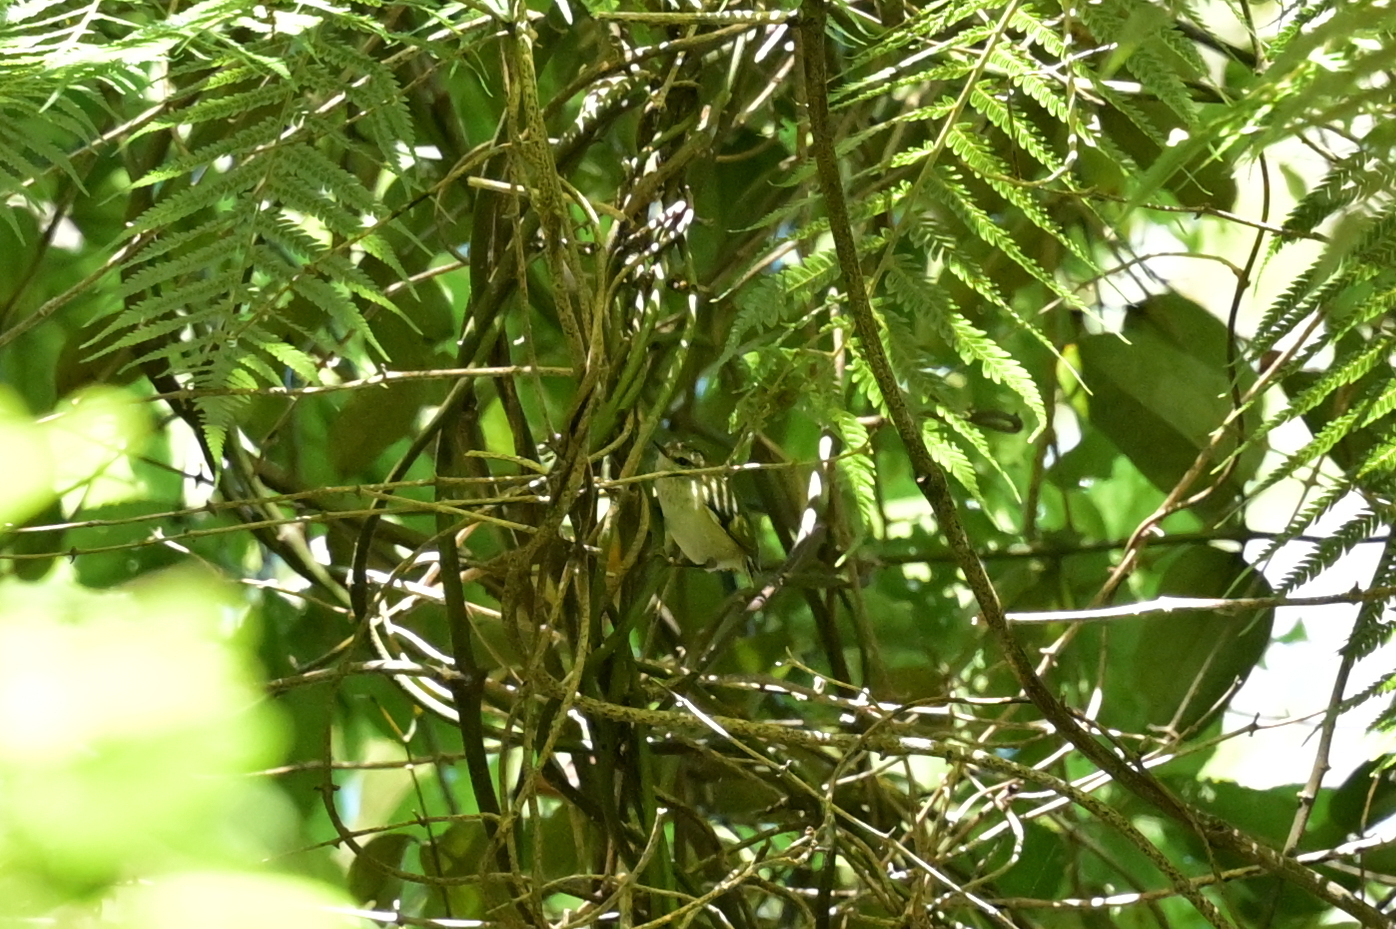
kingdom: Animalia
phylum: Chordata
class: Aves
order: Passeriformes
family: Acanthisittidae
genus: Acanthisitta
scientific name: Acanthisitta chloris
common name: Rifleman
